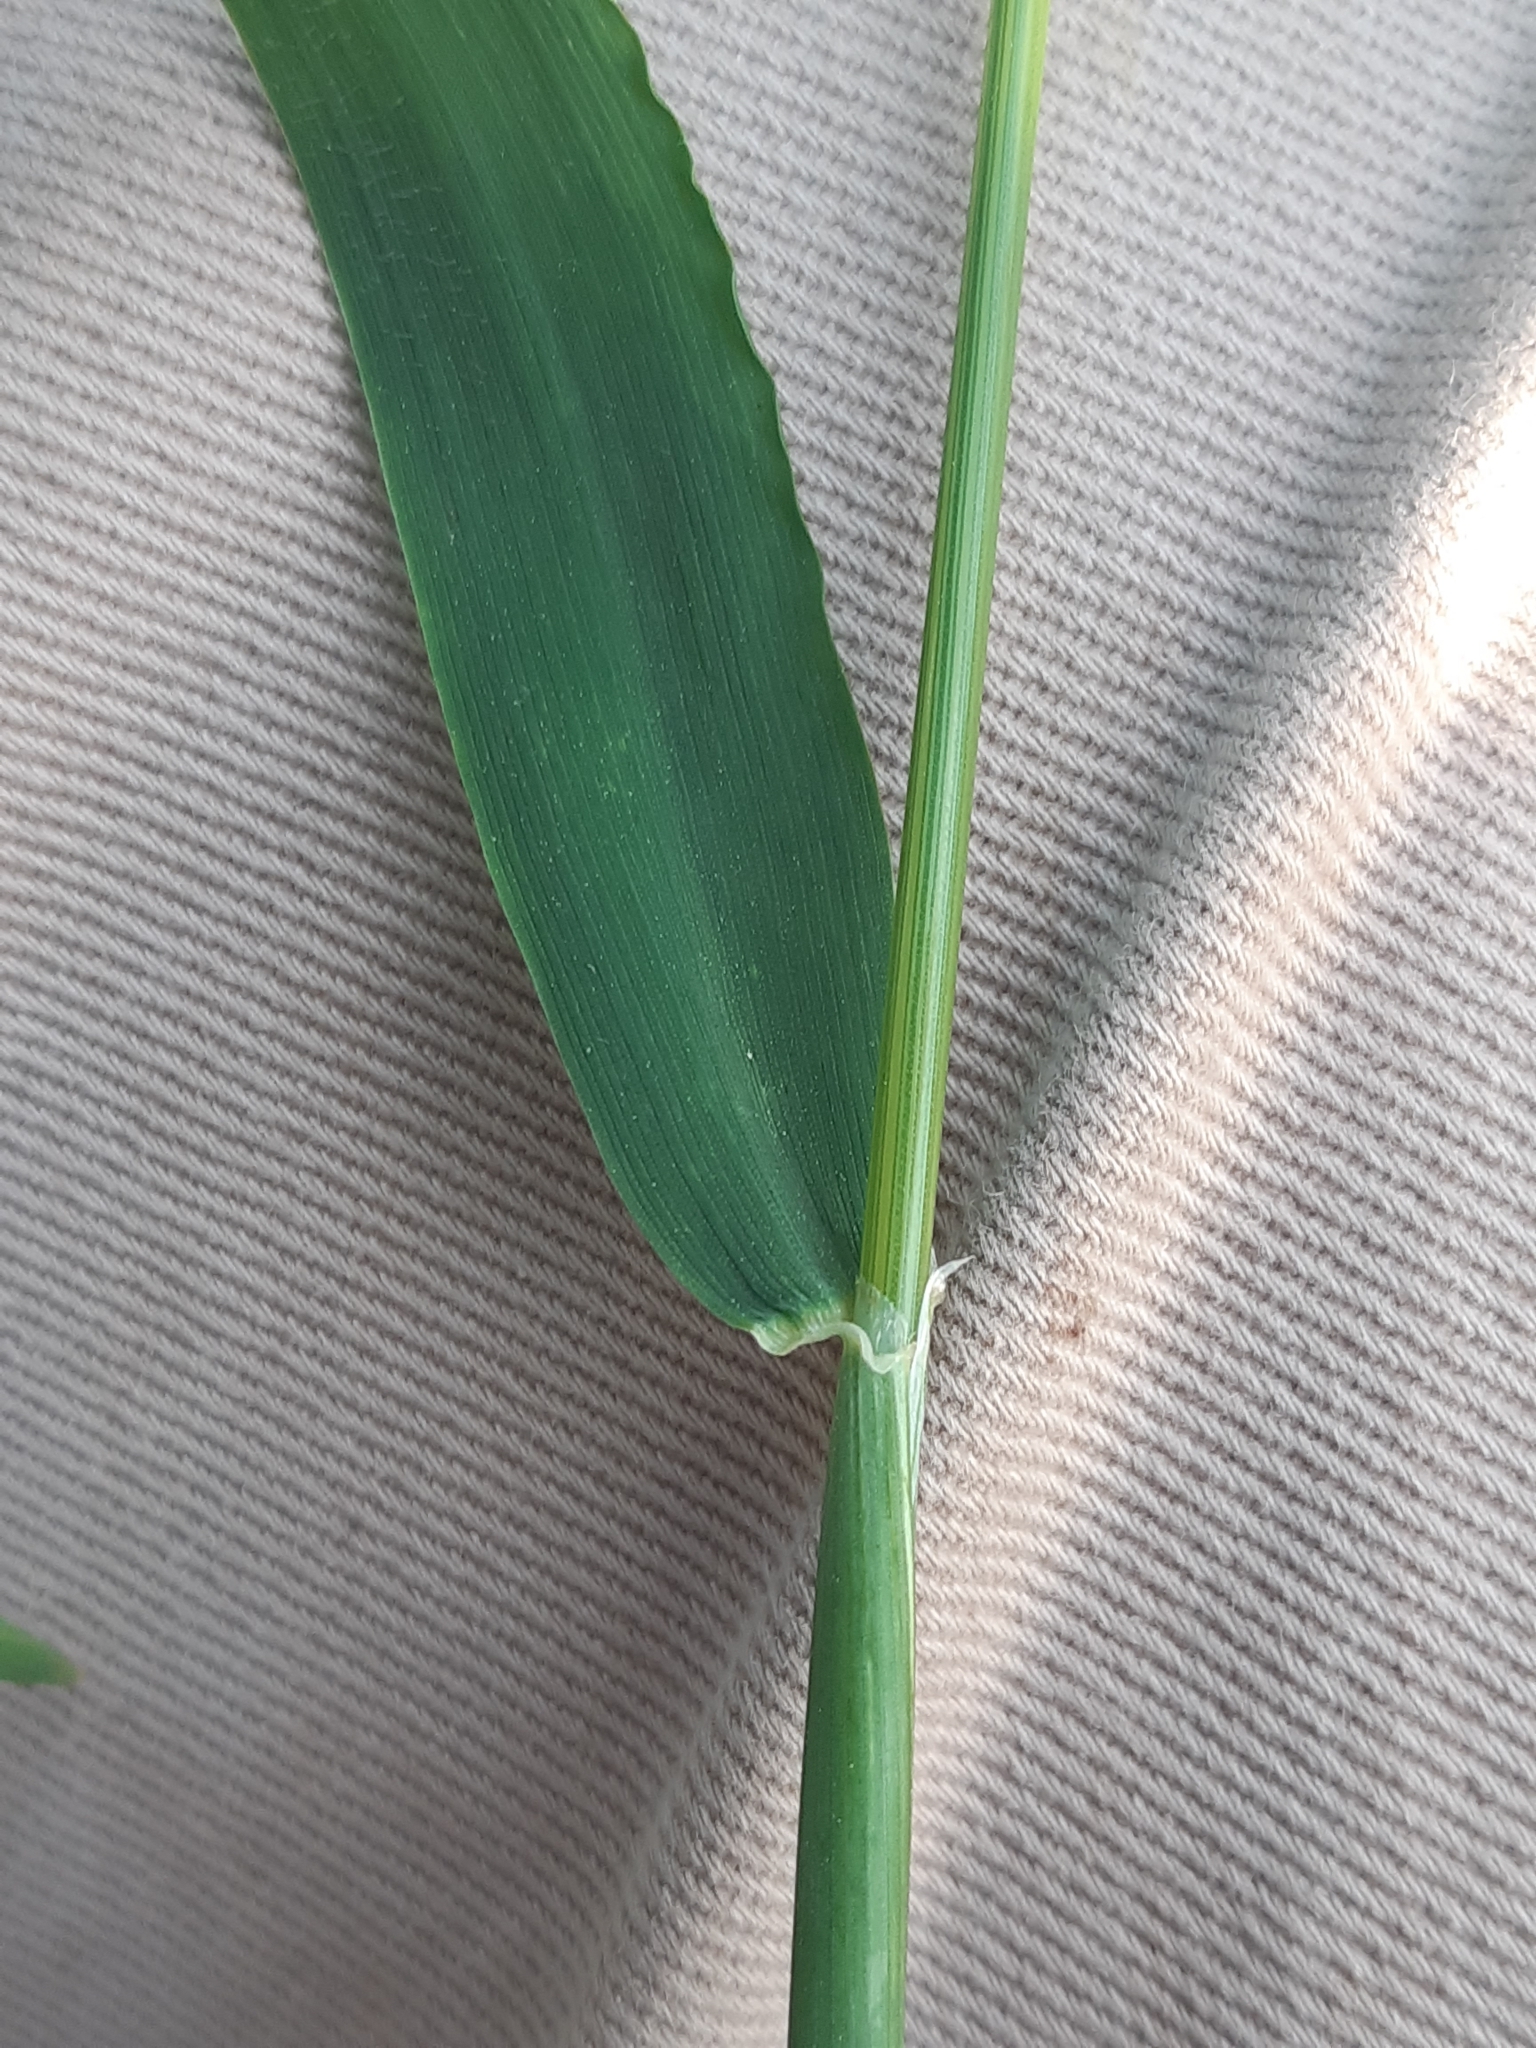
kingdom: Plantae
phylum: Tracheophyta
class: Liliopsida
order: Poales
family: Poaceae
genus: Hordeum
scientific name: Hordeum murinum
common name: Wall barley
